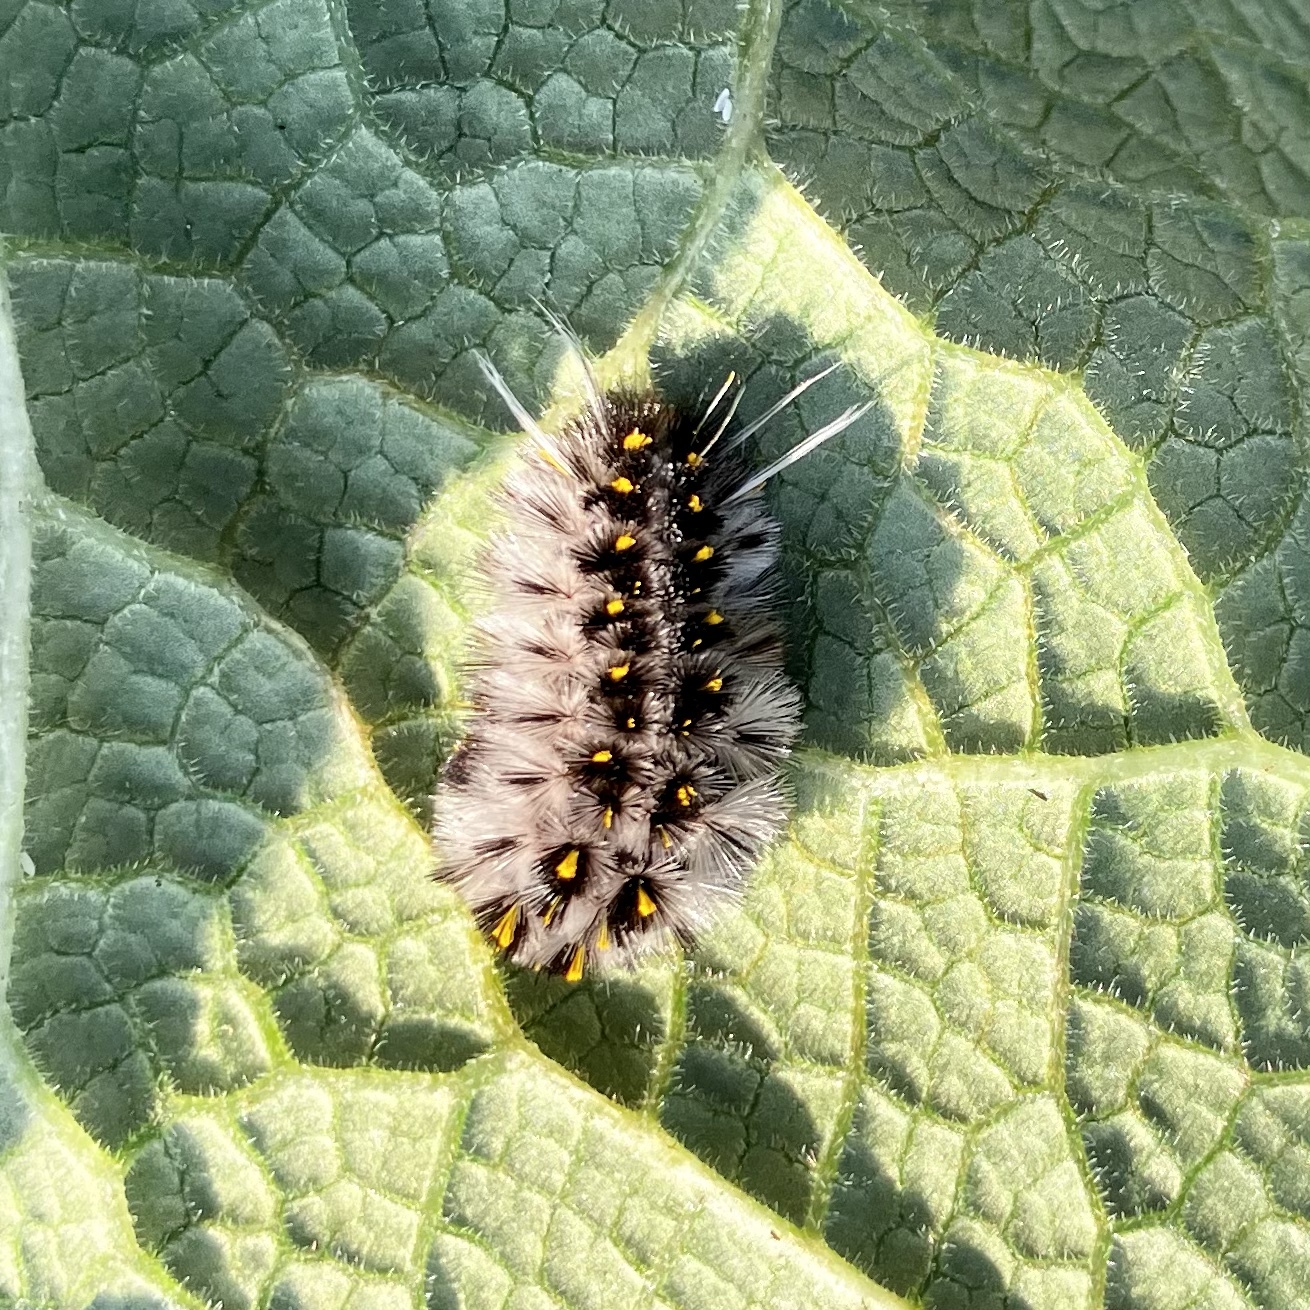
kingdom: Animalia
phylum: Arthropoda
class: Insecta
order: Lepidoptera
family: Erebidae
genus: Lophocampa
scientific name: Lophocampa roseata
